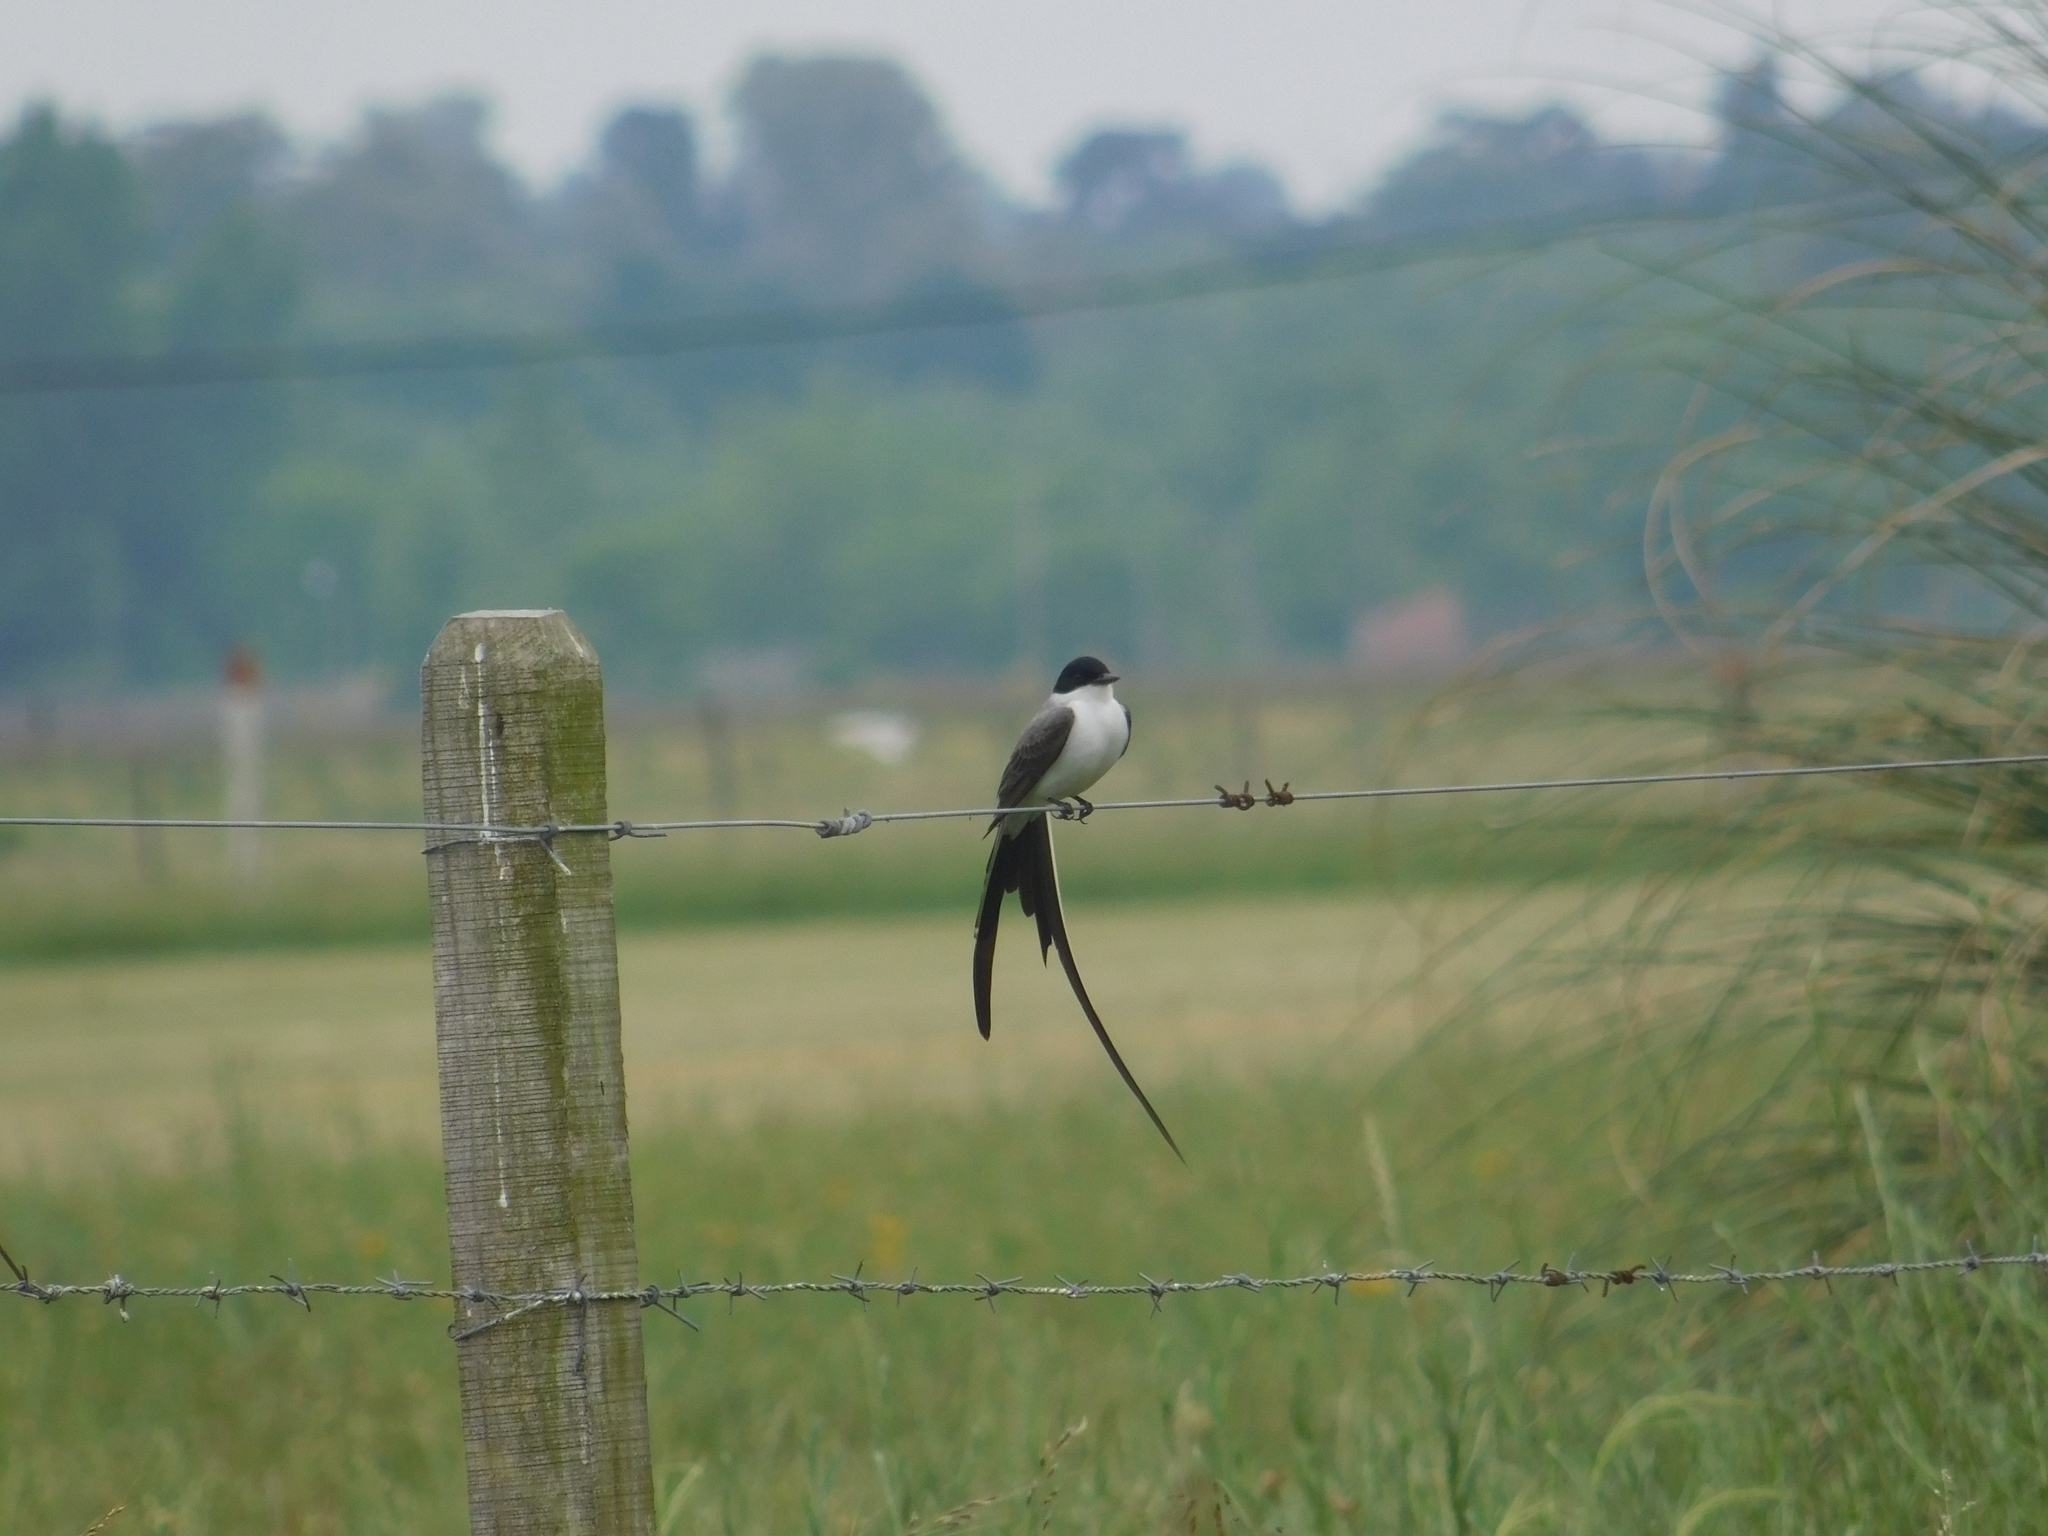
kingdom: Animalia
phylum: Chordata
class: Aves
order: Passeriformes
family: Tyrannidae
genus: Tyrannus
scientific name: Tyrannus savana
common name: Fork-tailed flycatcher
